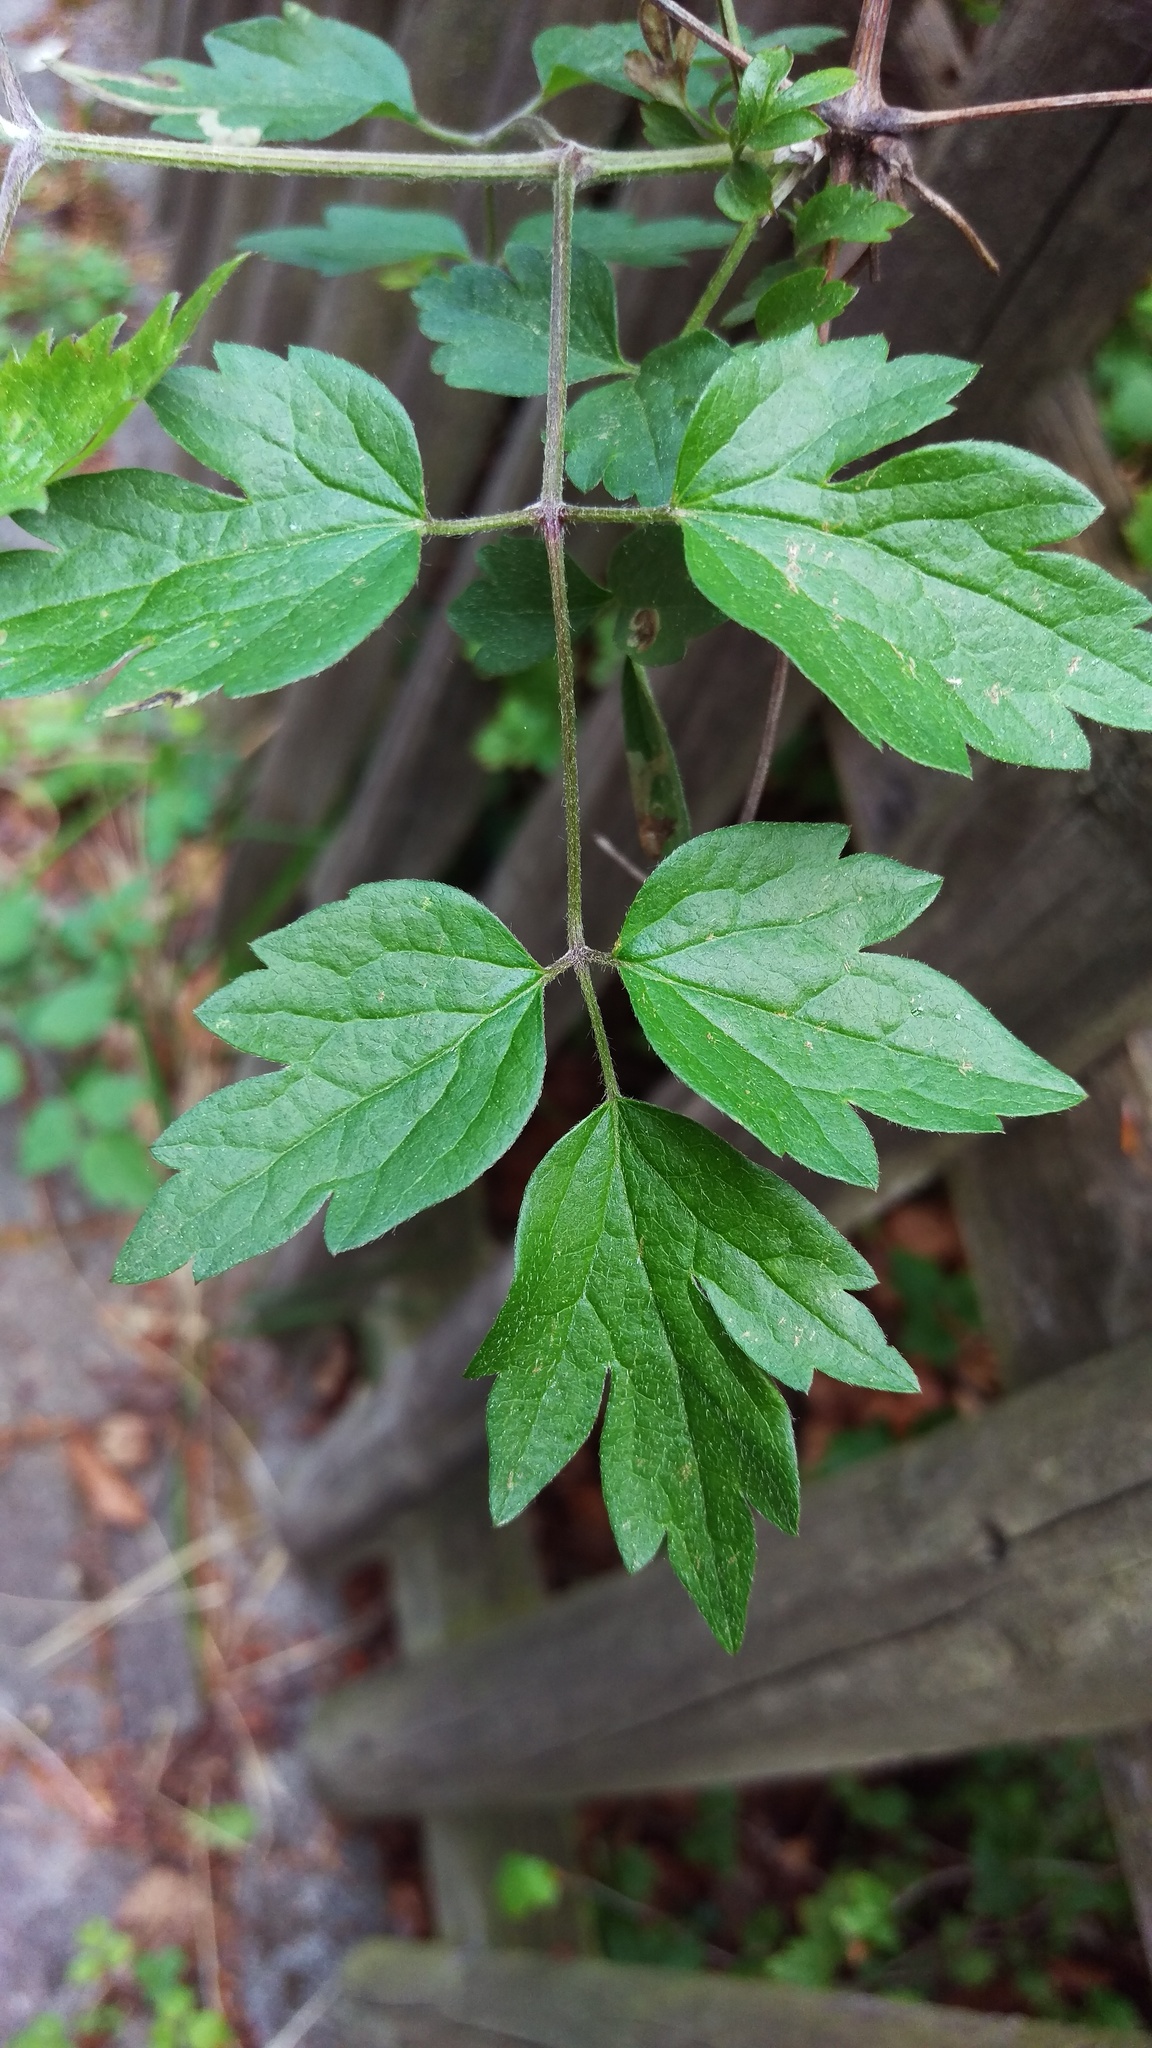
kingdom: Plantae
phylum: Tracheophyta
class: Magnoliopsida
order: Ranunculales
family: Ranunculaceae
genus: Clematis
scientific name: Clematis vitalba
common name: Evergreen clematis
